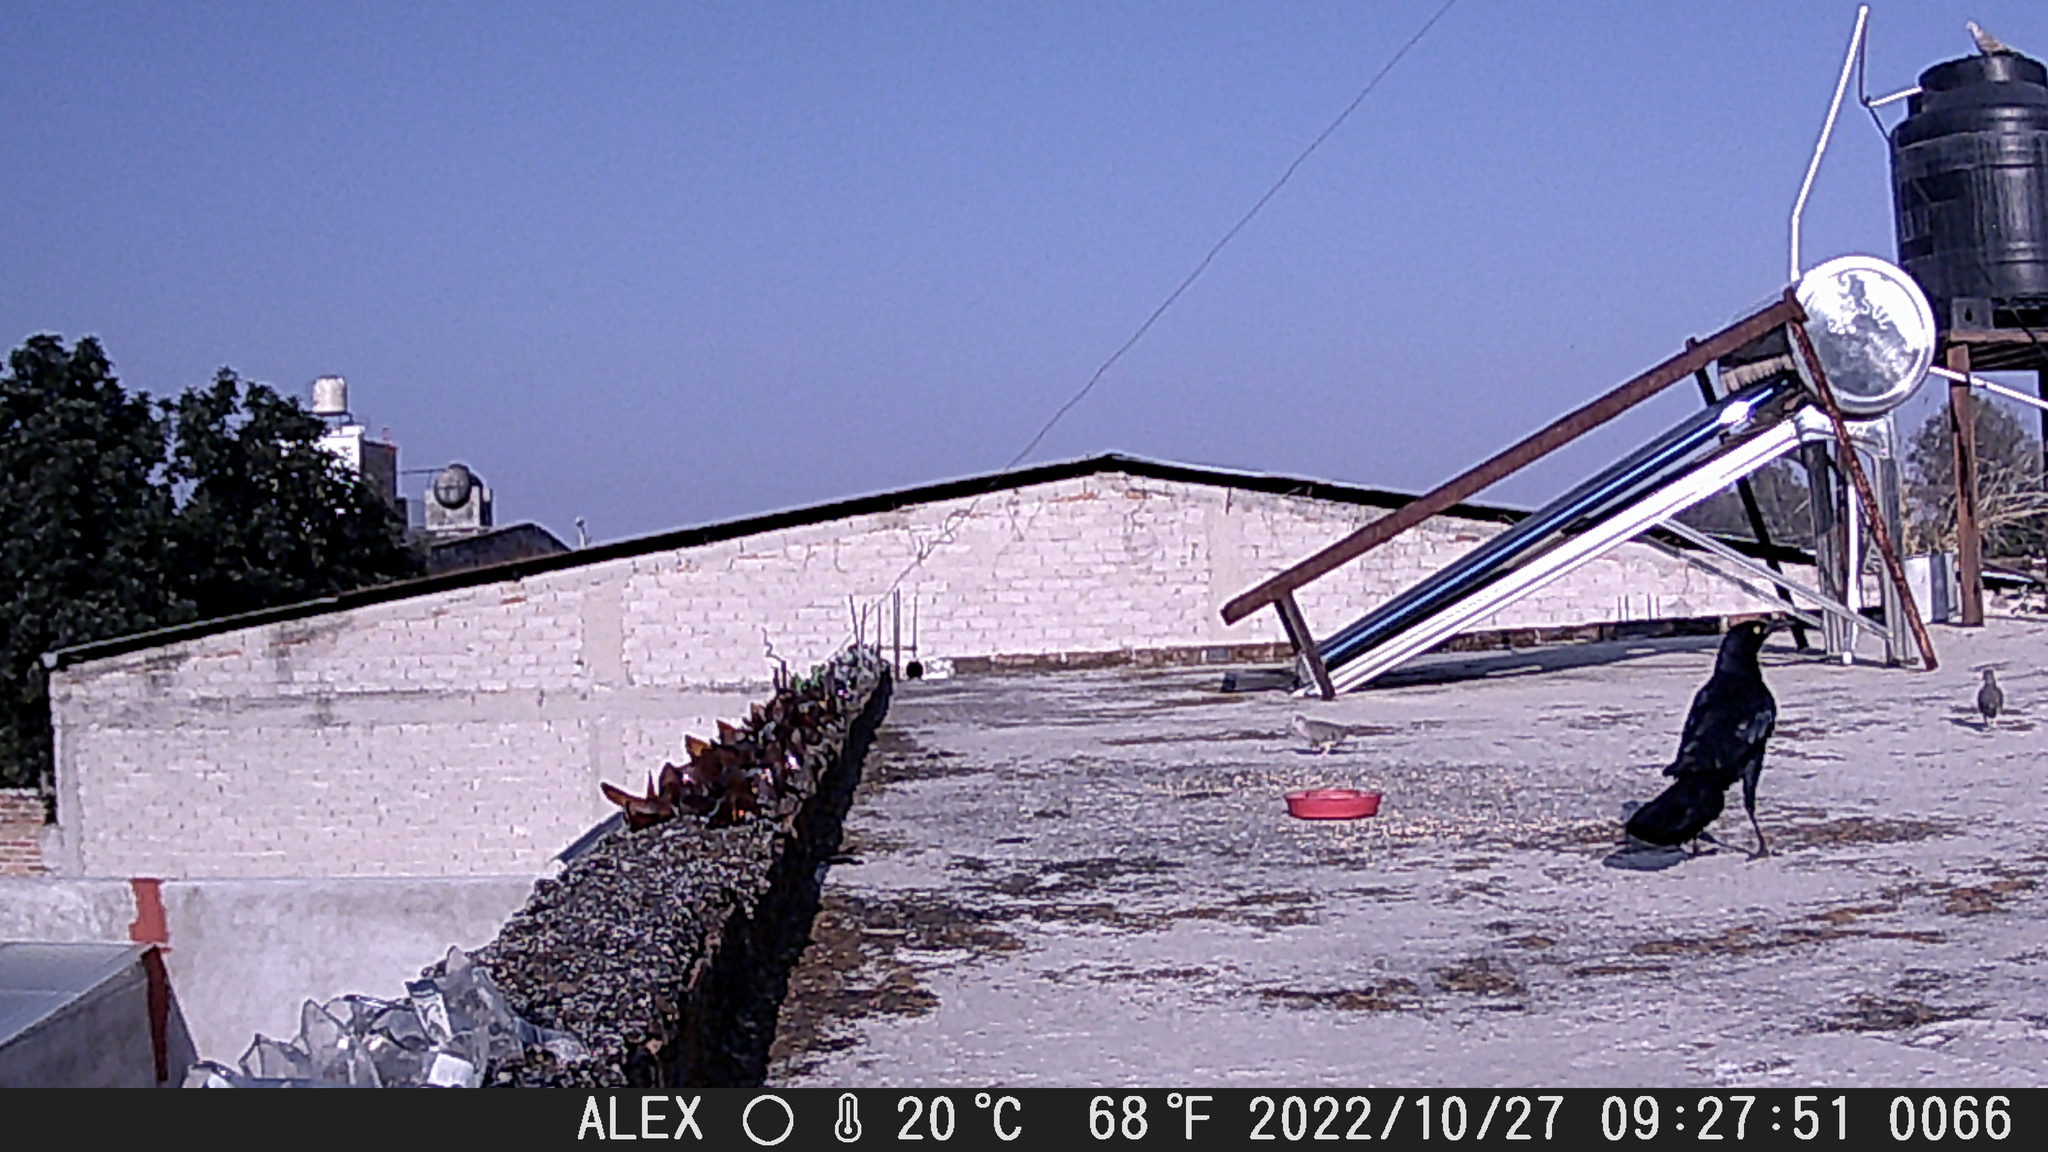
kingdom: Animalia
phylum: Chordata
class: Aves
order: Passeriformes
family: Icteridae
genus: Quiscalus
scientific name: Quiscalus mexicanus
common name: Great-tailed grackle
